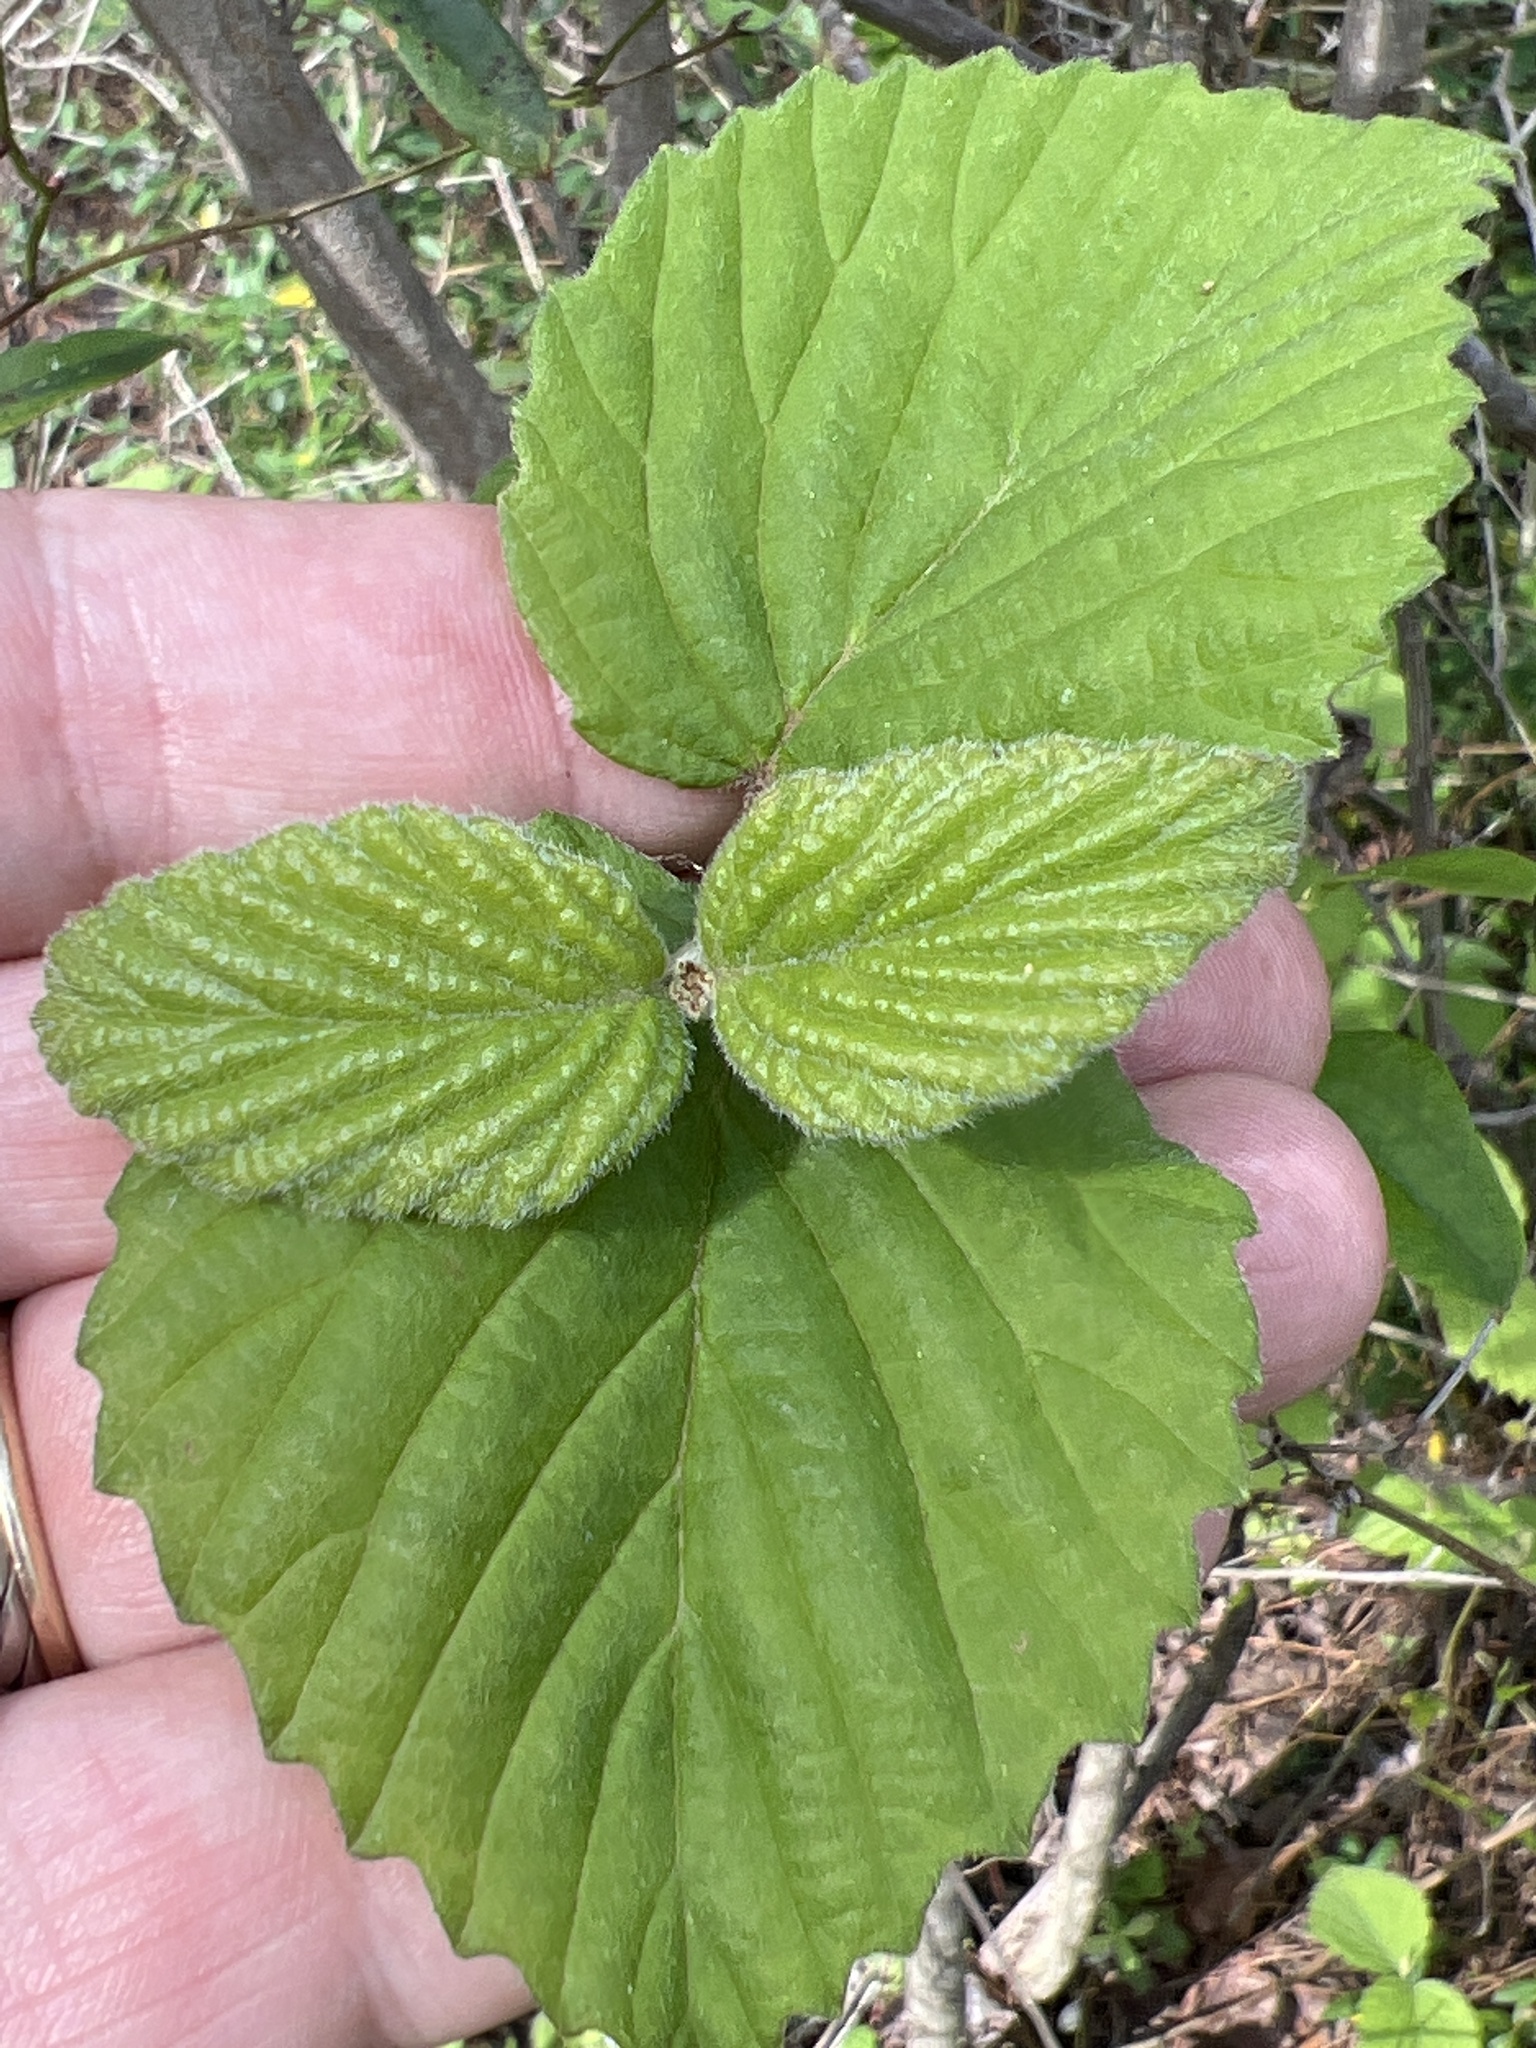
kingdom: Plantae
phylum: Tracheophyta
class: Magnoliopsida
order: Dipsacales
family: Viburnaceae
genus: Viburnum
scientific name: Viburnum scabrellum
